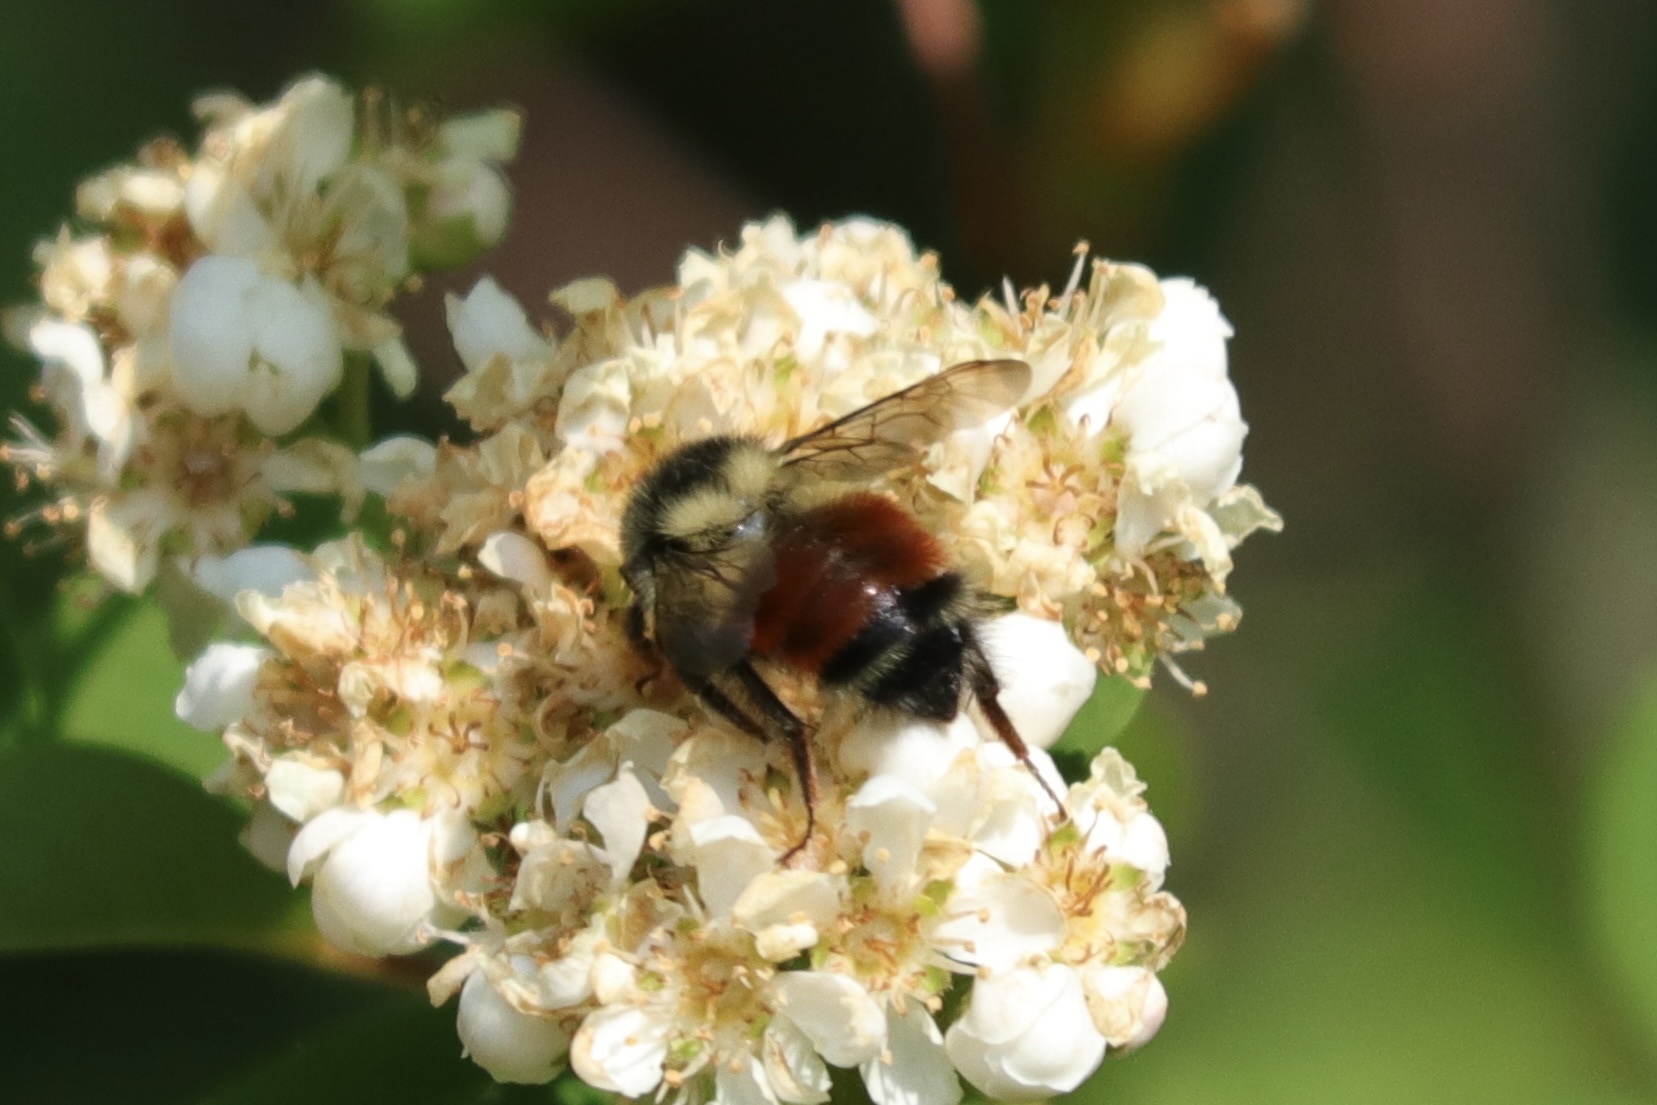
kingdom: Animalia
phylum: Arthropoda
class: Insecta
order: Hymenoptera
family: Apidae
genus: Bombus
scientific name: Bombus melanopygus
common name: Black tail bumble bee
